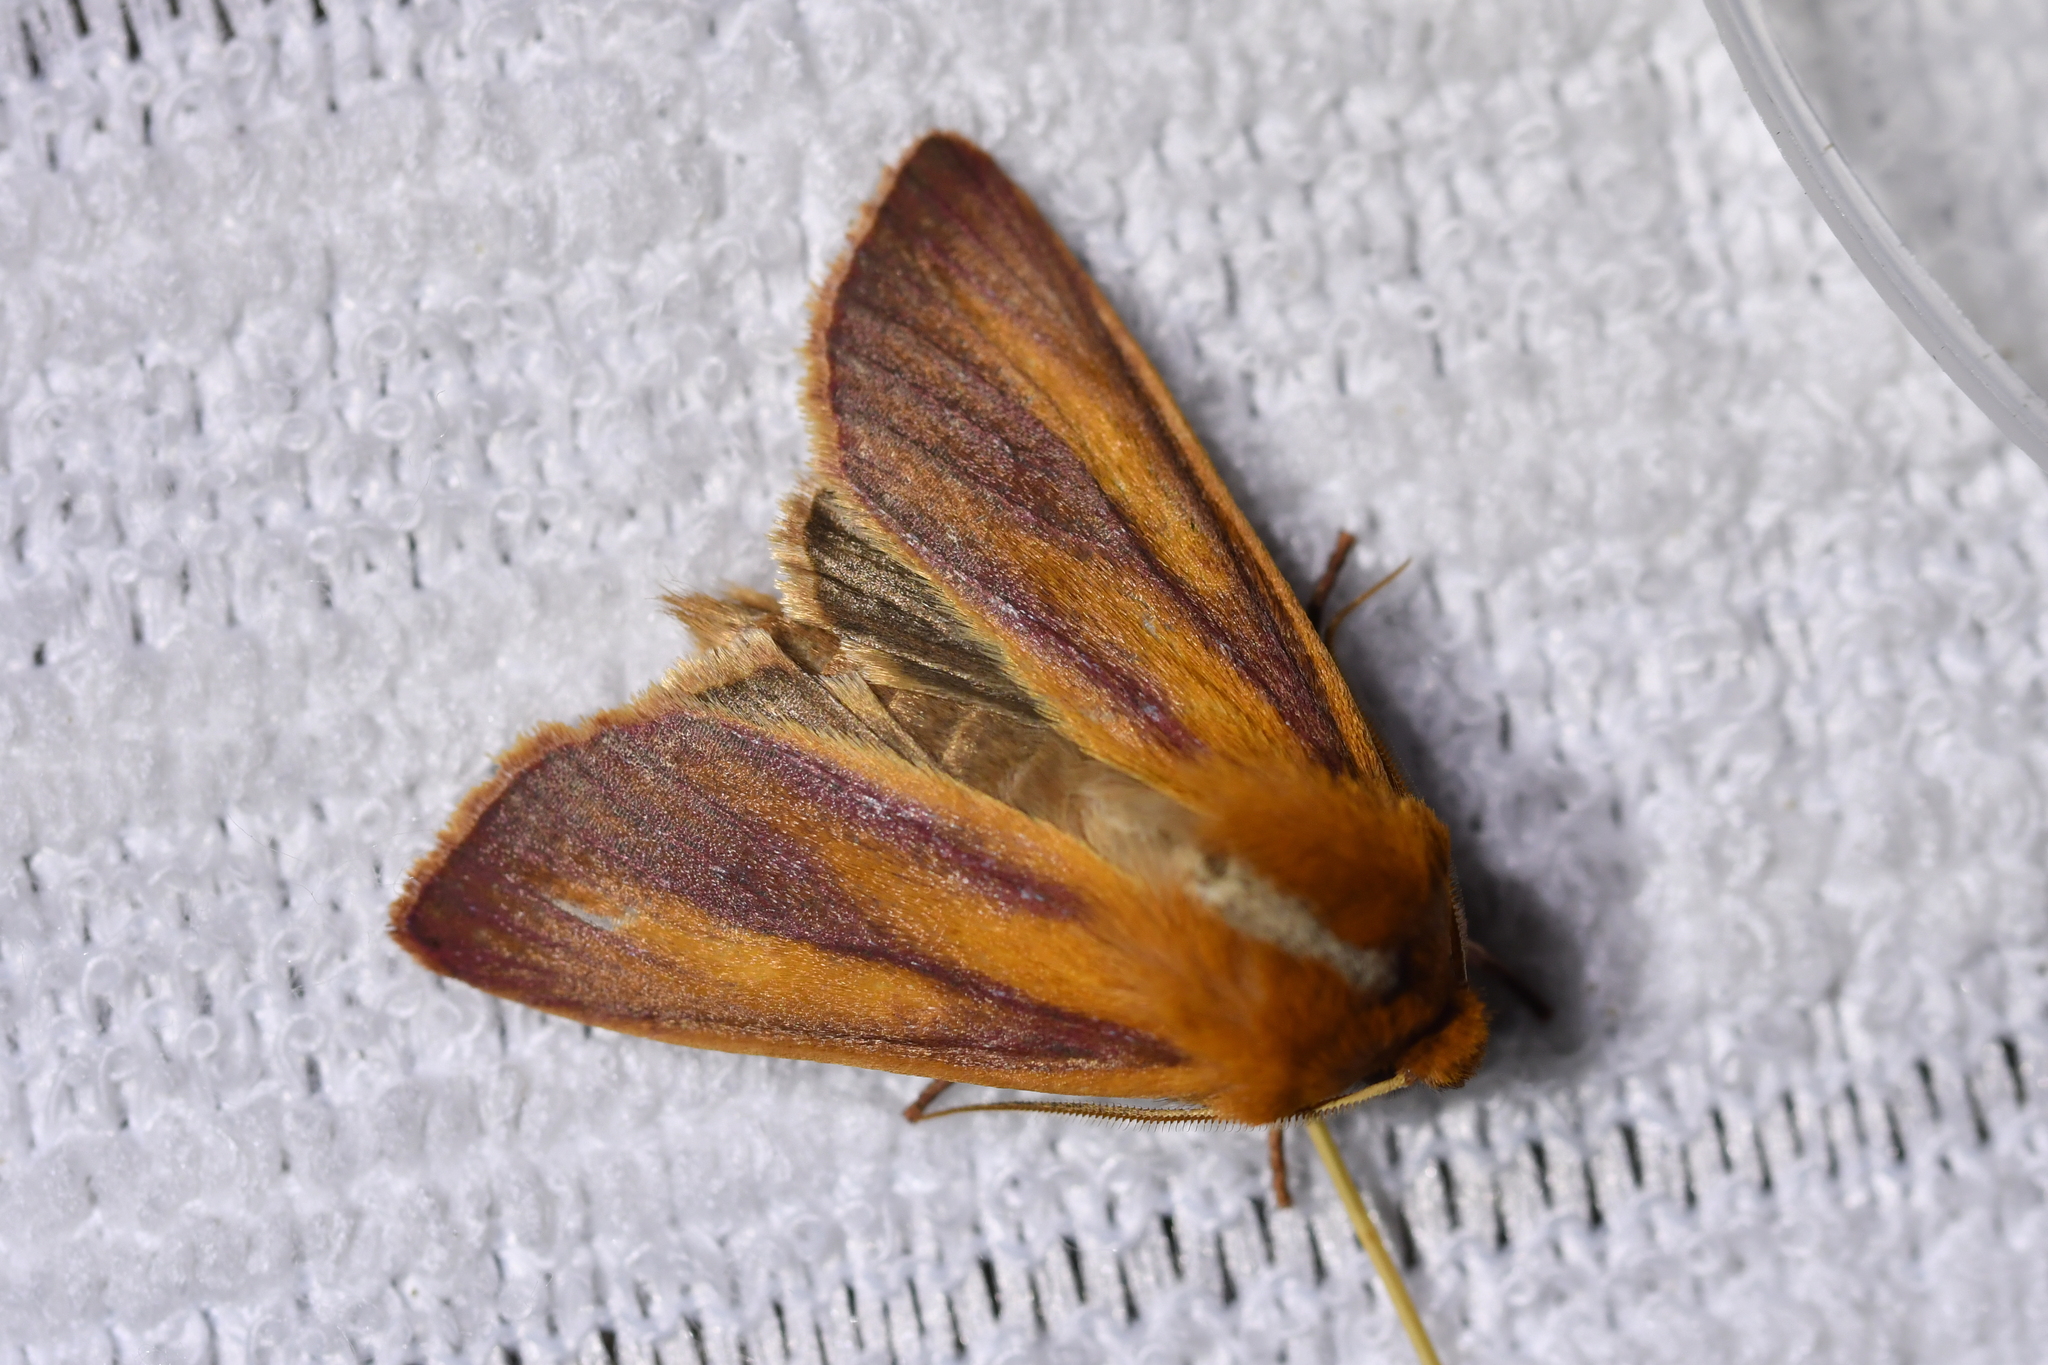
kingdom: Animalia
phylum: Arthropoda
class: Insecta
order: Lepidoptera
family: Noctuidae
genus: Ichneutica
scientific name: Ichneutica
